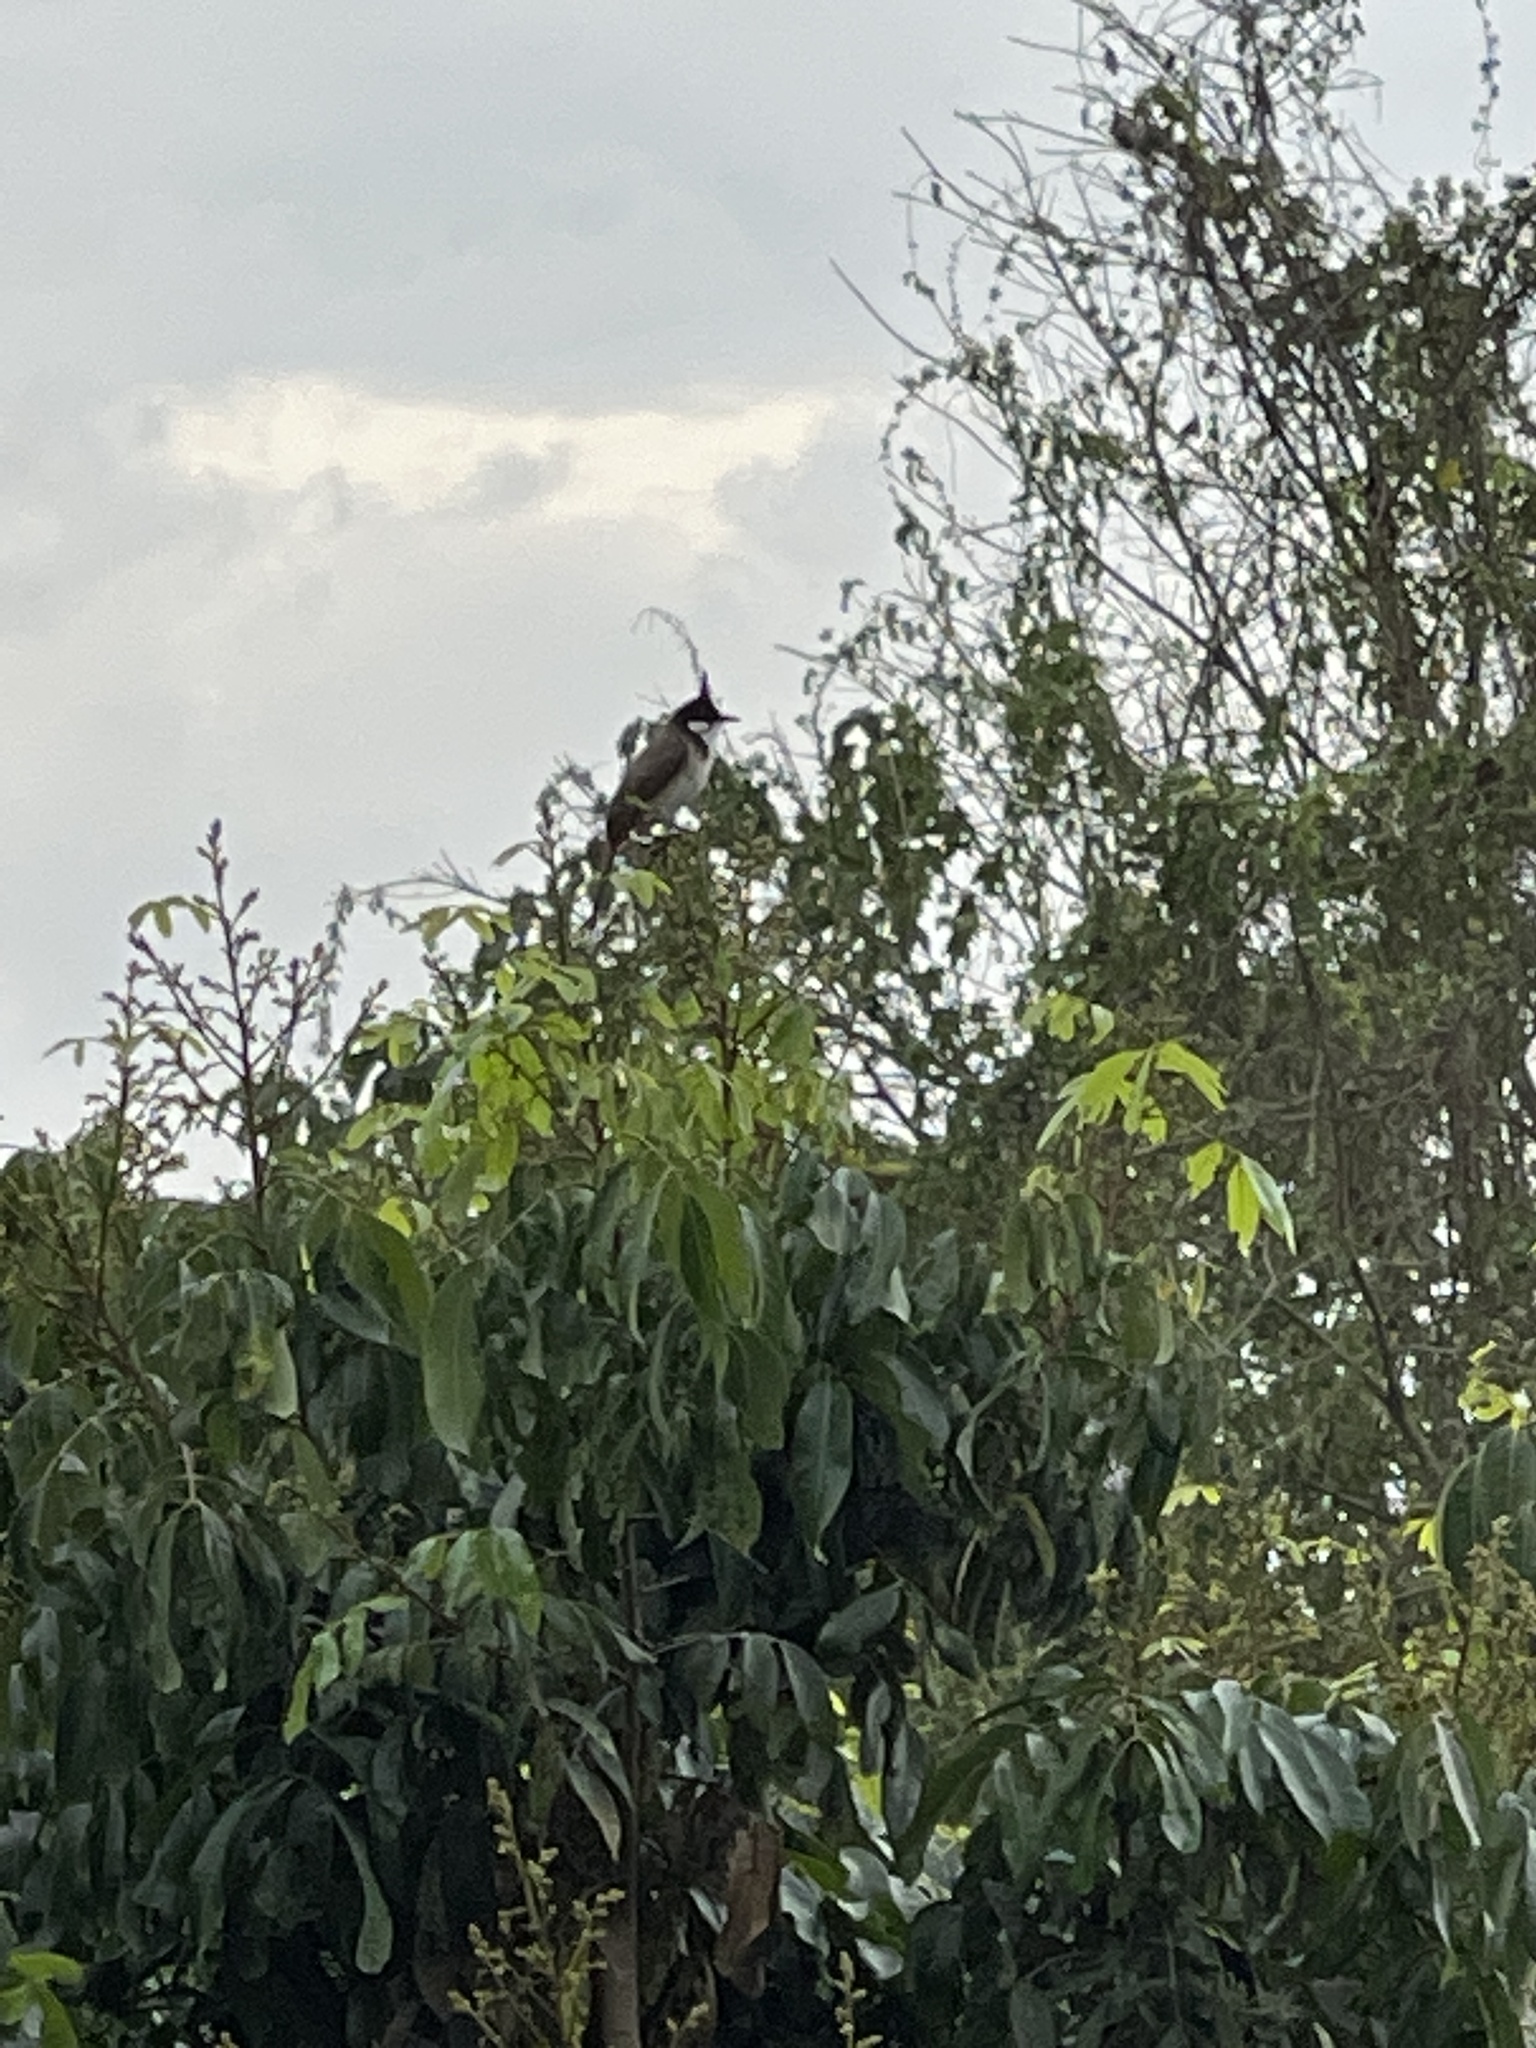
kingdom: Animalia
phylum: Chordata
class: Aves
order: Passeriformes
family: Pycnonotidae
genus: Pycnonotus
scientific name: Pycnonotus jocosus
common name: Red-whiskered bulbul
